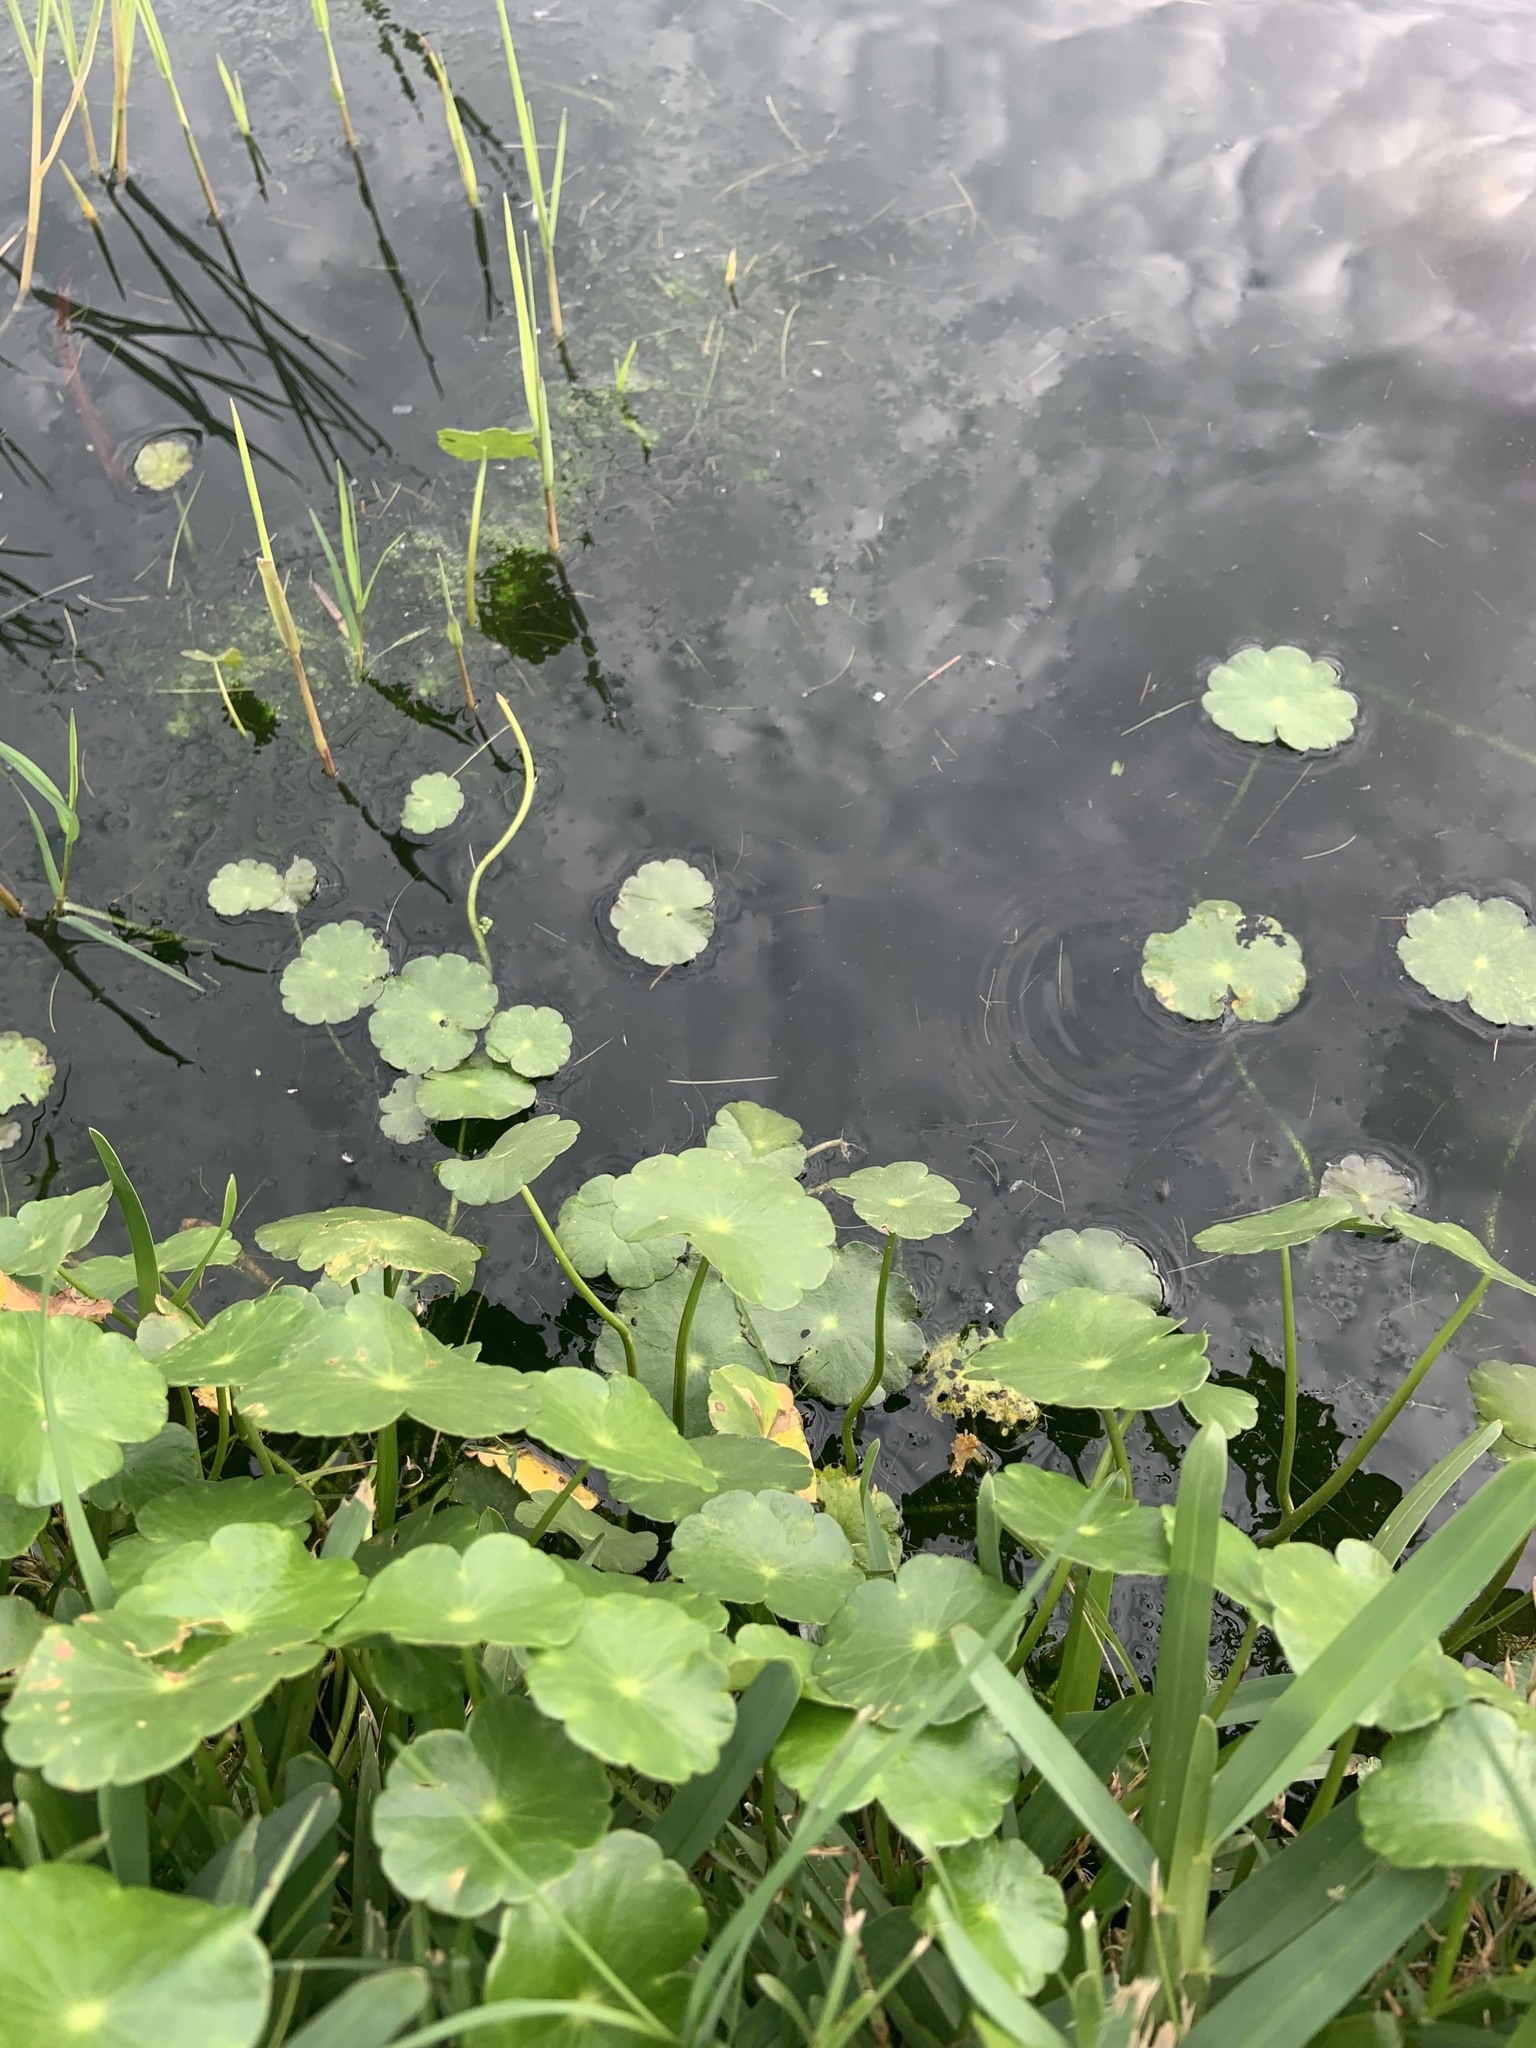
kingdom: Plantae
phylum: Tracheophyta
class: Magnoliopsida
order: Apiales
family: Araliaceae
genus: Hydrocotyle
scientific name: Hydrocotyle umbellata
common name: Water pennywort
